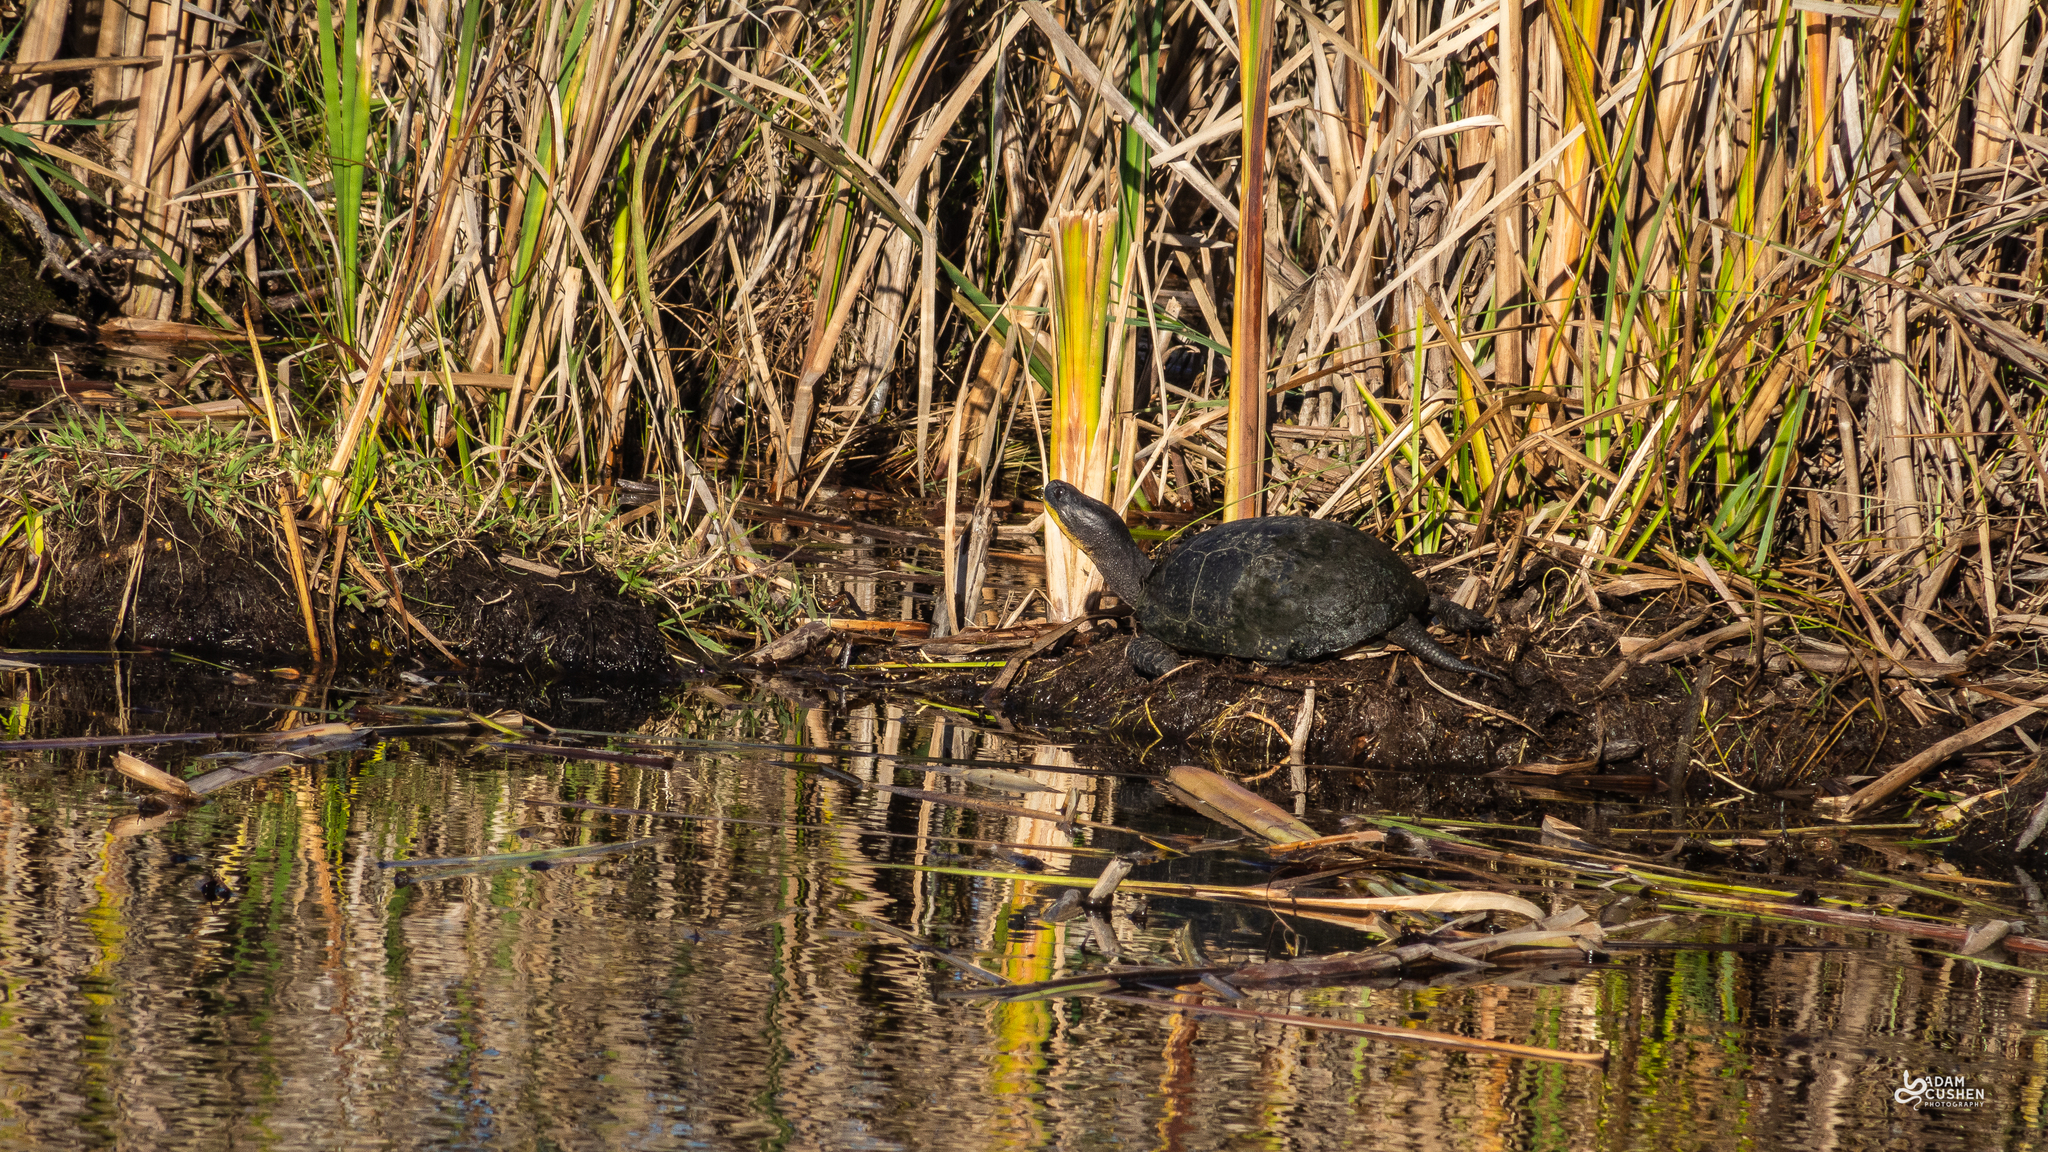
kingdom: Animalia
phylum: Chordata
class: Testudines
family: Emydidae
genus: Emys
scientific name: Emys blandingii
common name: Blanding's turtle
